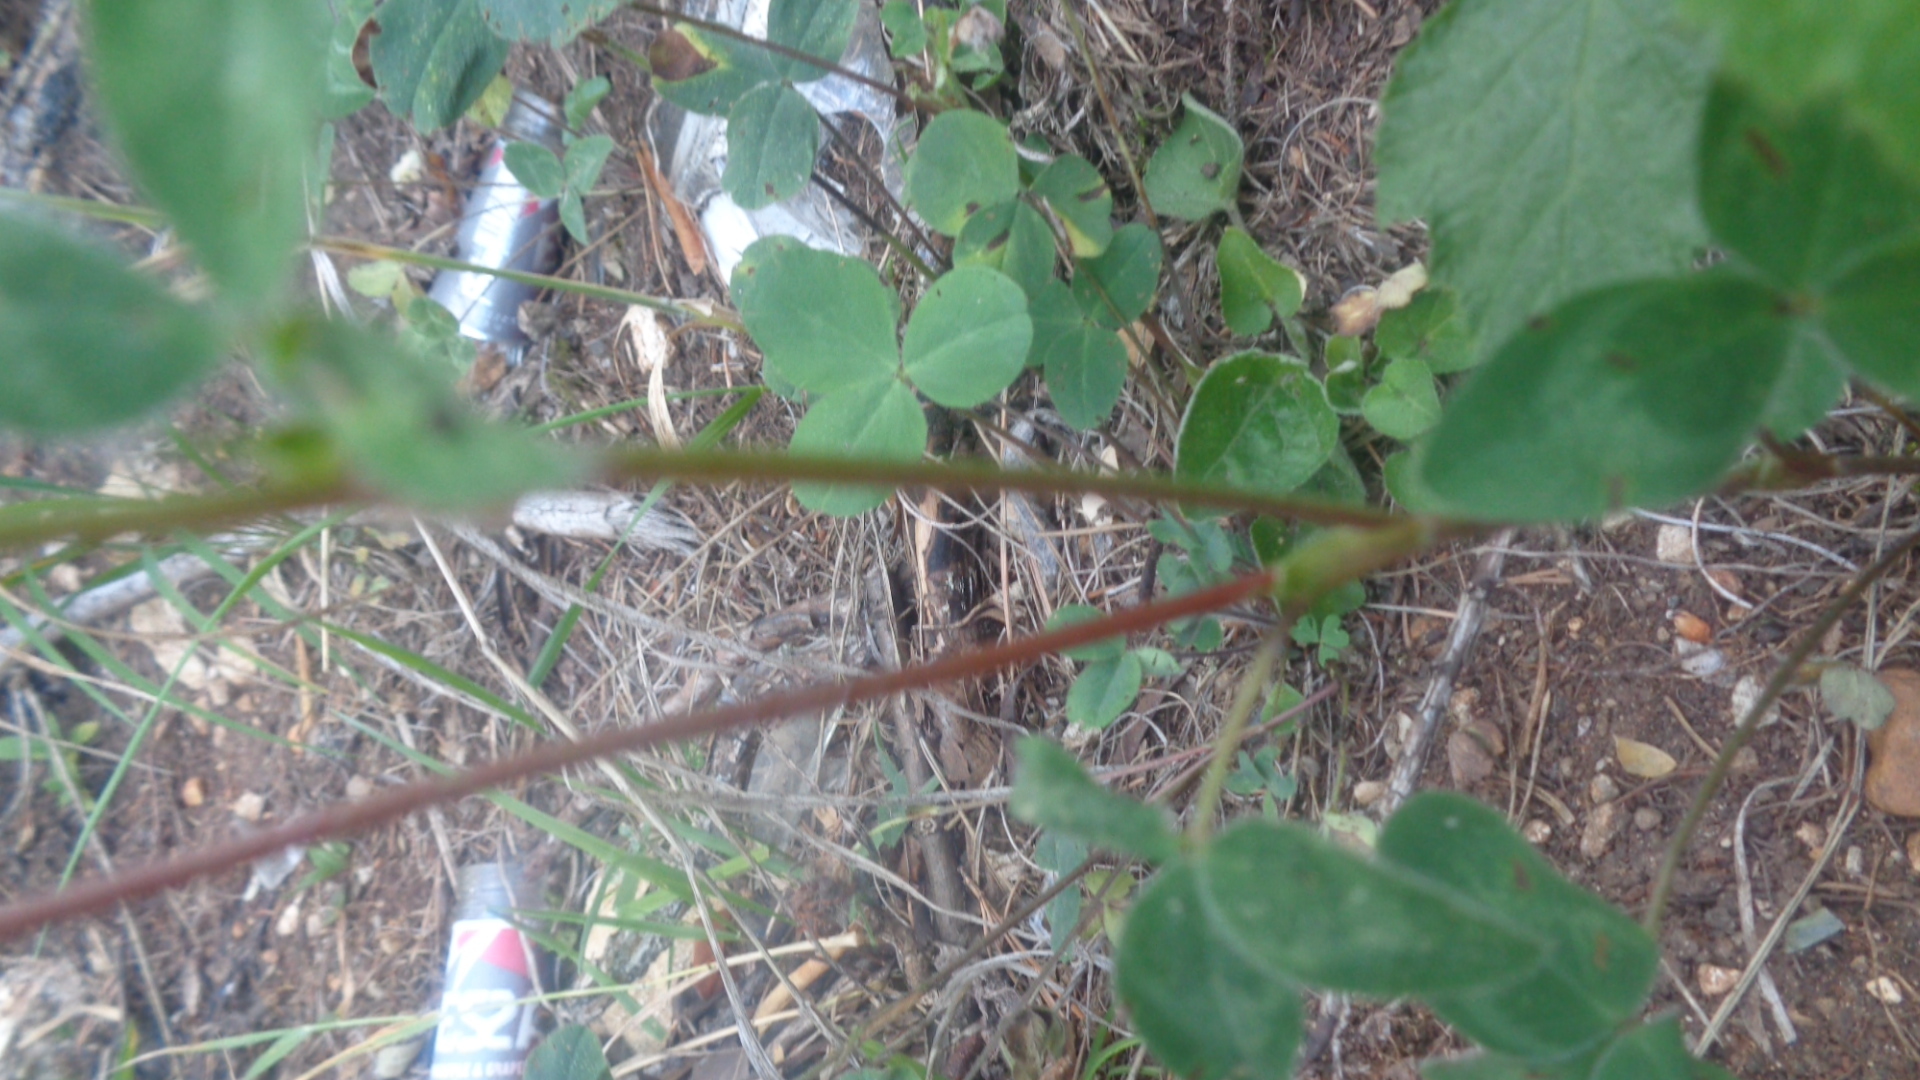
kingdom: Plantae
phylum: Tracheophyta
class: Magnoliopsida
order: Fabales
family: Fabaceae
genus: Trifolium
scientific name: Trifolium pratense
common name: Red clover
